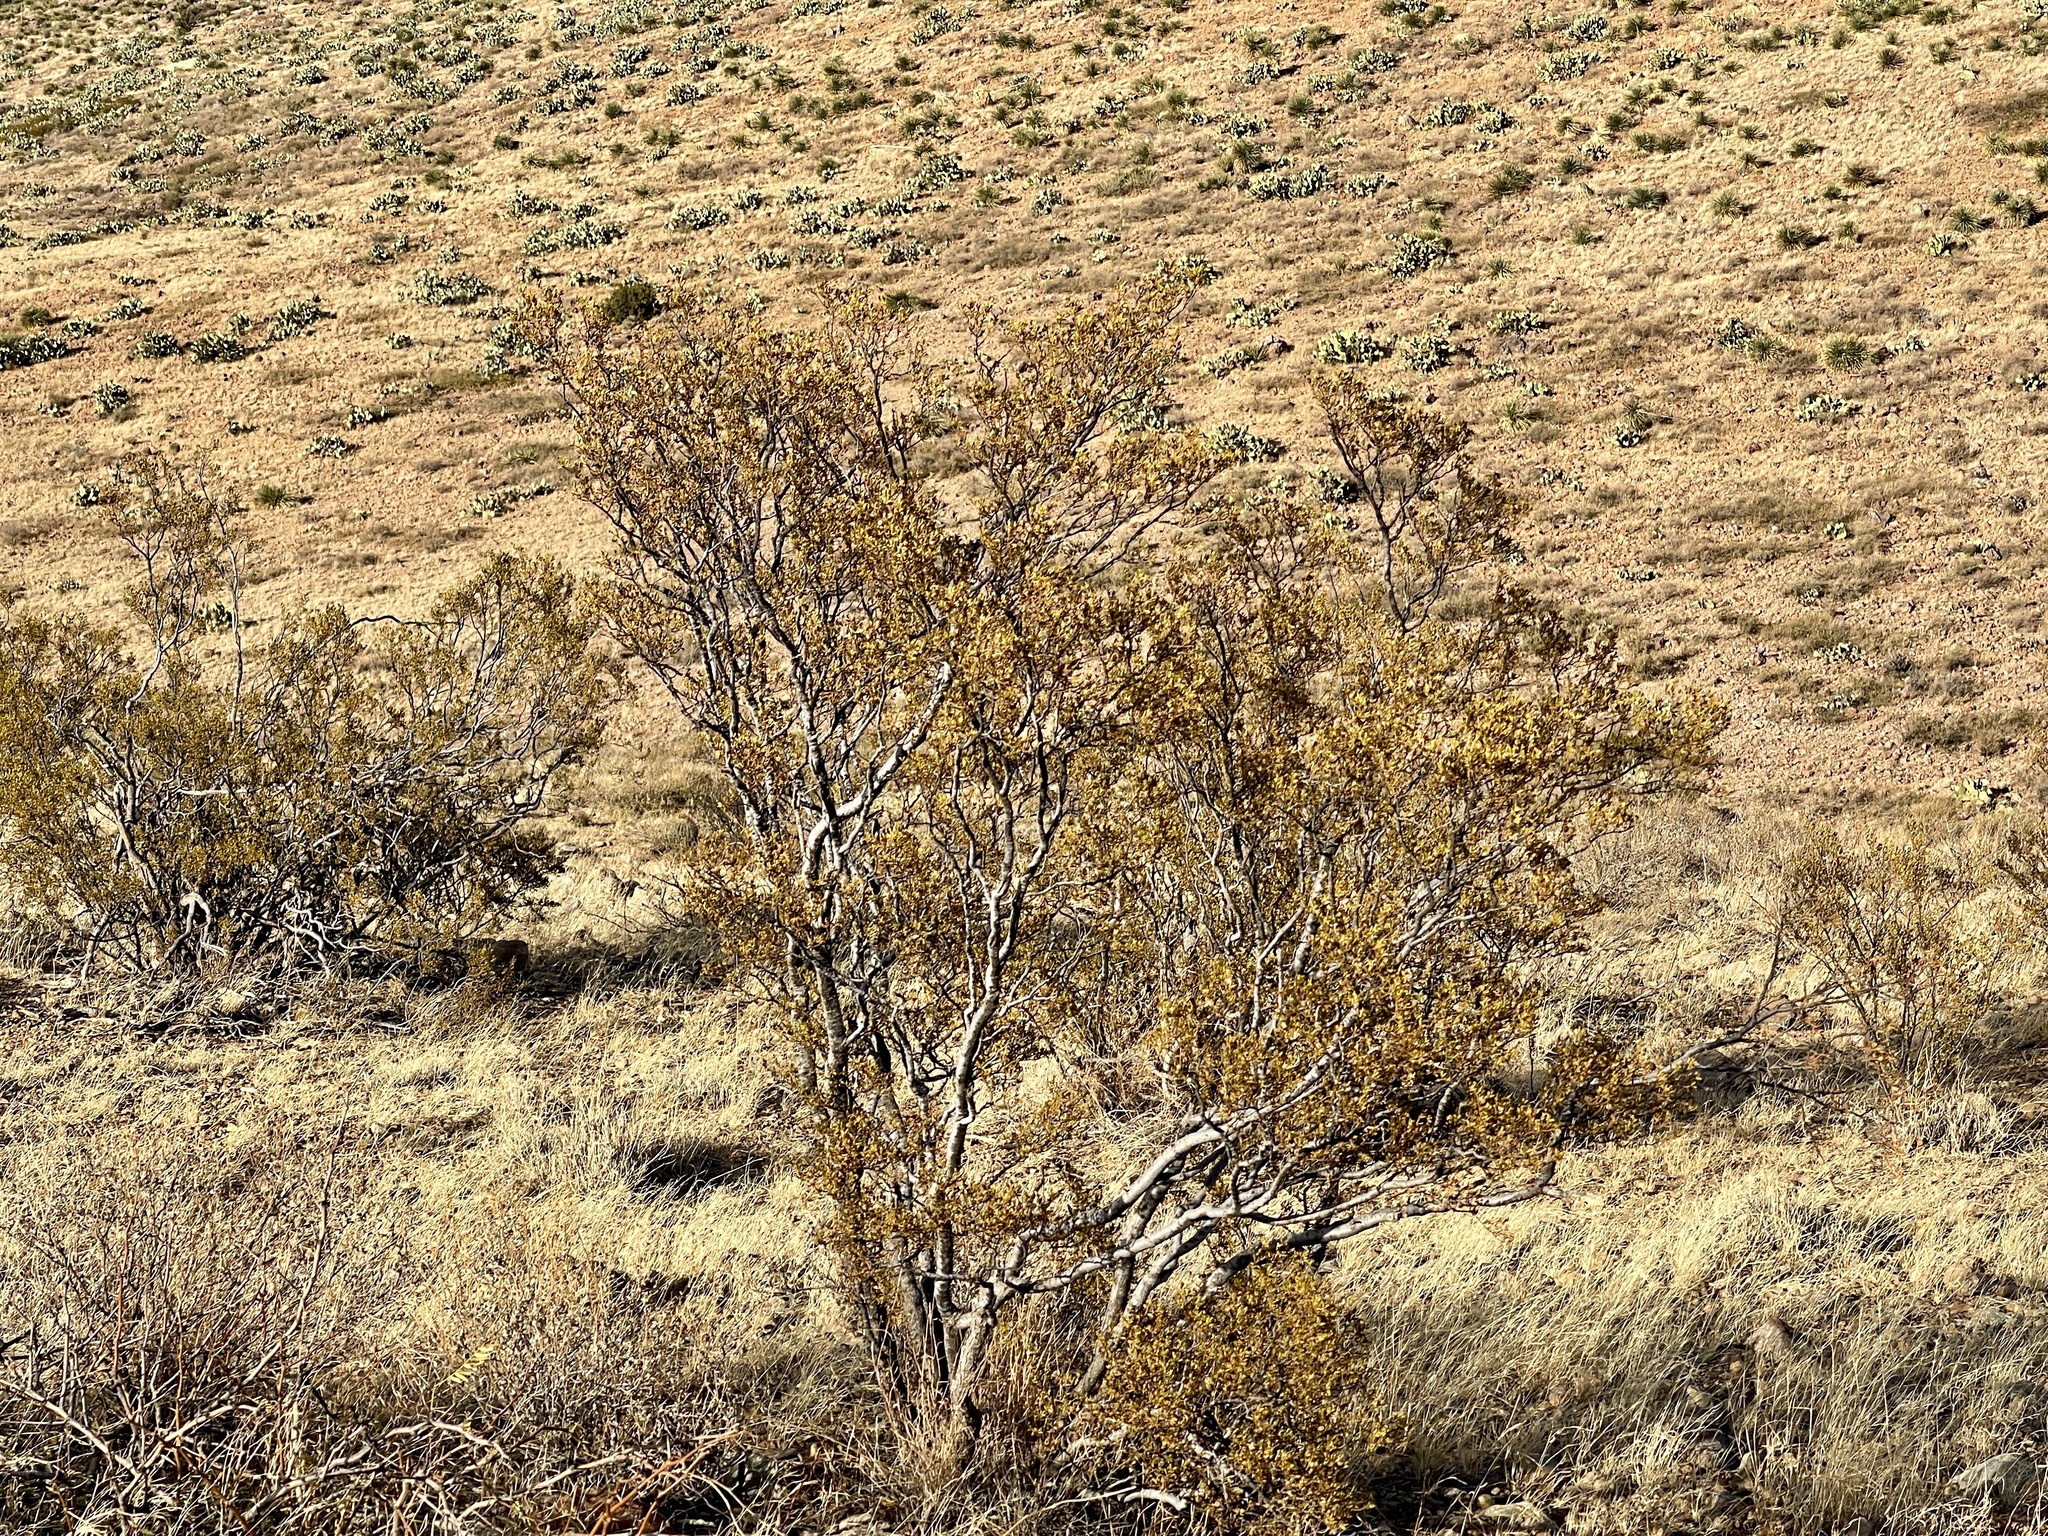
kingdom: Plantae
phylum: Tracheophyta
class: Magnoliopsida
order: Zygophyllales
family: Zygophyllaceae
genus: Larrea
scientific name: Larrea tridentata
